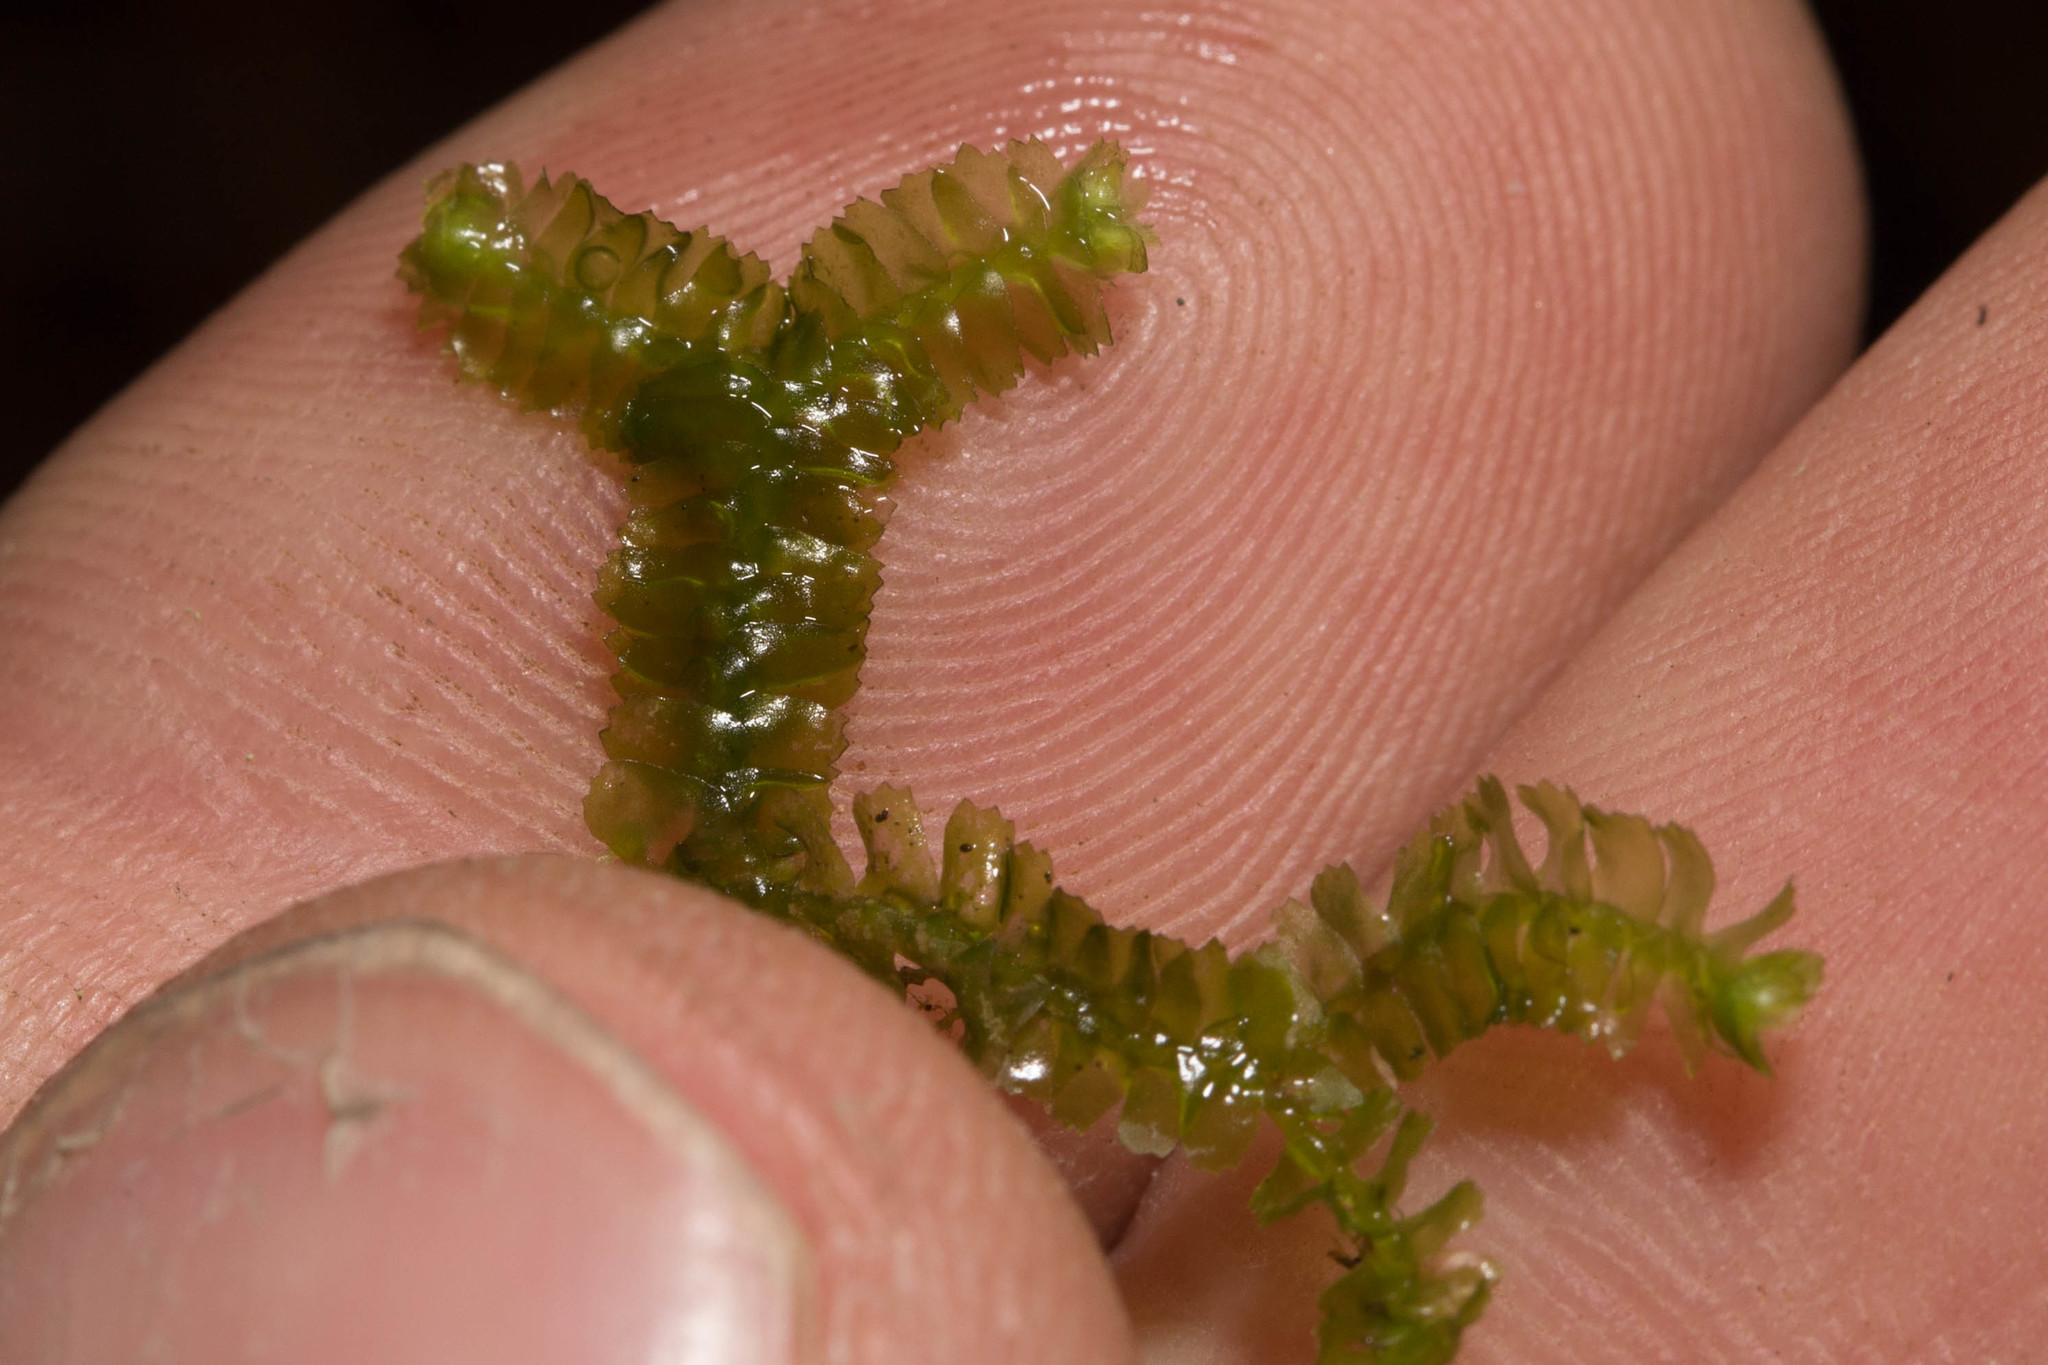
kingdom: Plantae
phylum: Marchantiophyta
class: Jungermanniopsida
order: Jungermanniales
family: Lepidoziaceae
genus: Bazzania
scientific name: Bazzania trilobata
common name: Three-lobed whipwort
